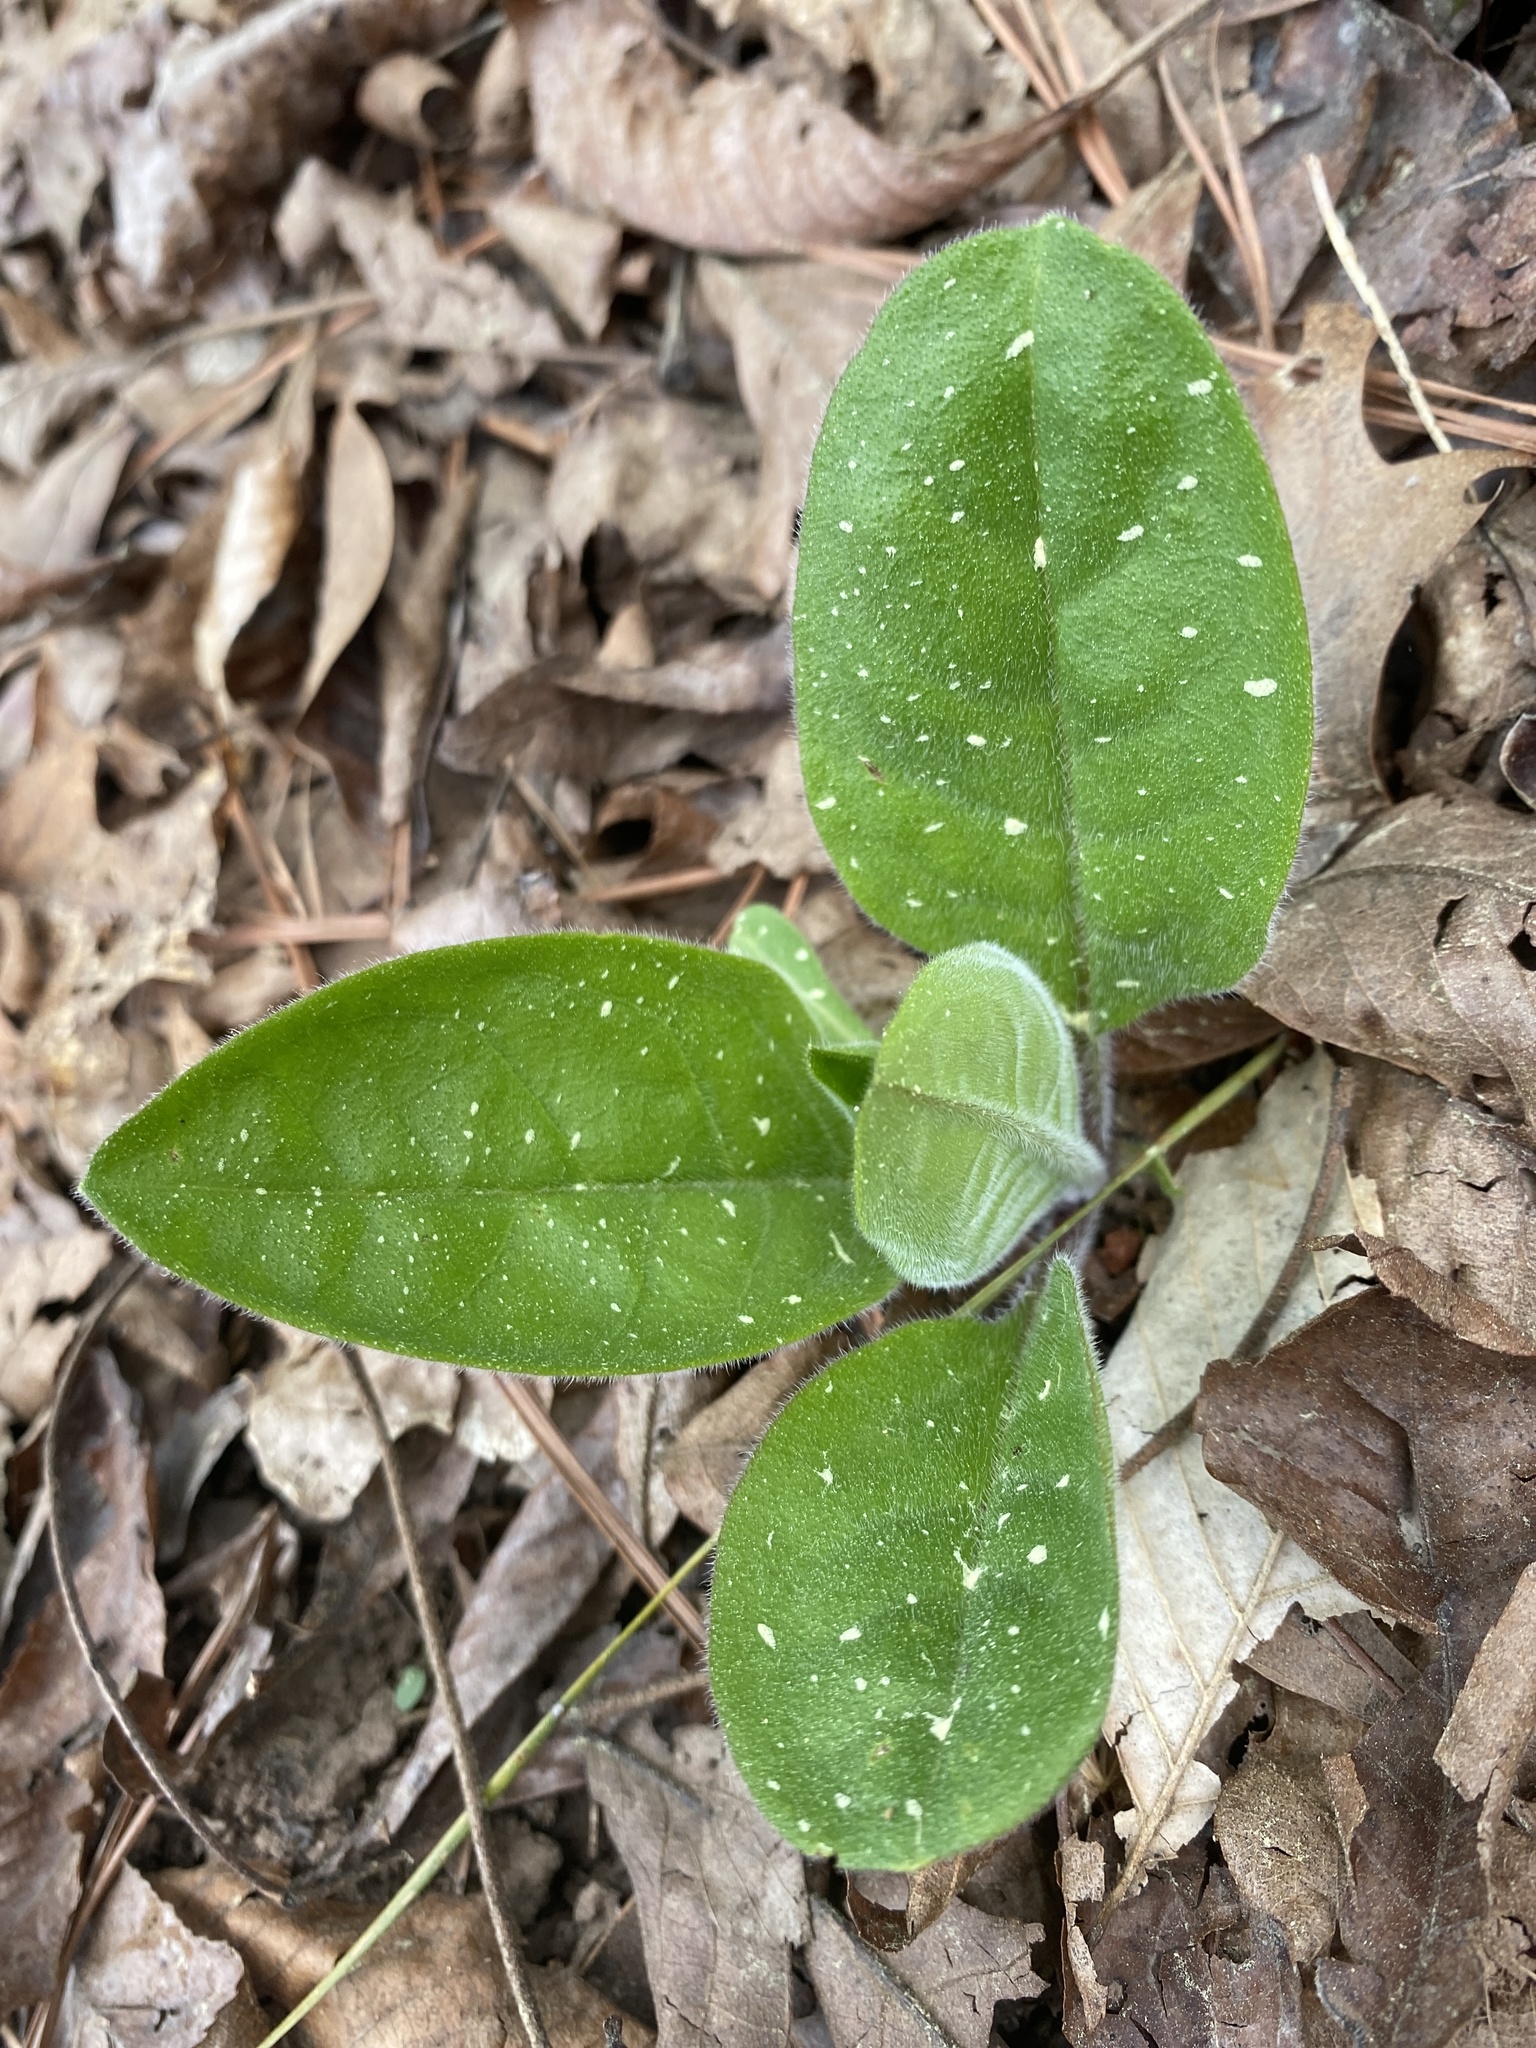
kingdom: Plantae
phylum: Tracheophyta
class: Magnoliopsida
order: Boraginales
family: Boraginaceae
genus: Andersonglossum
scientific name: Andersonglossum virginianum
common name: Wild comfrey
